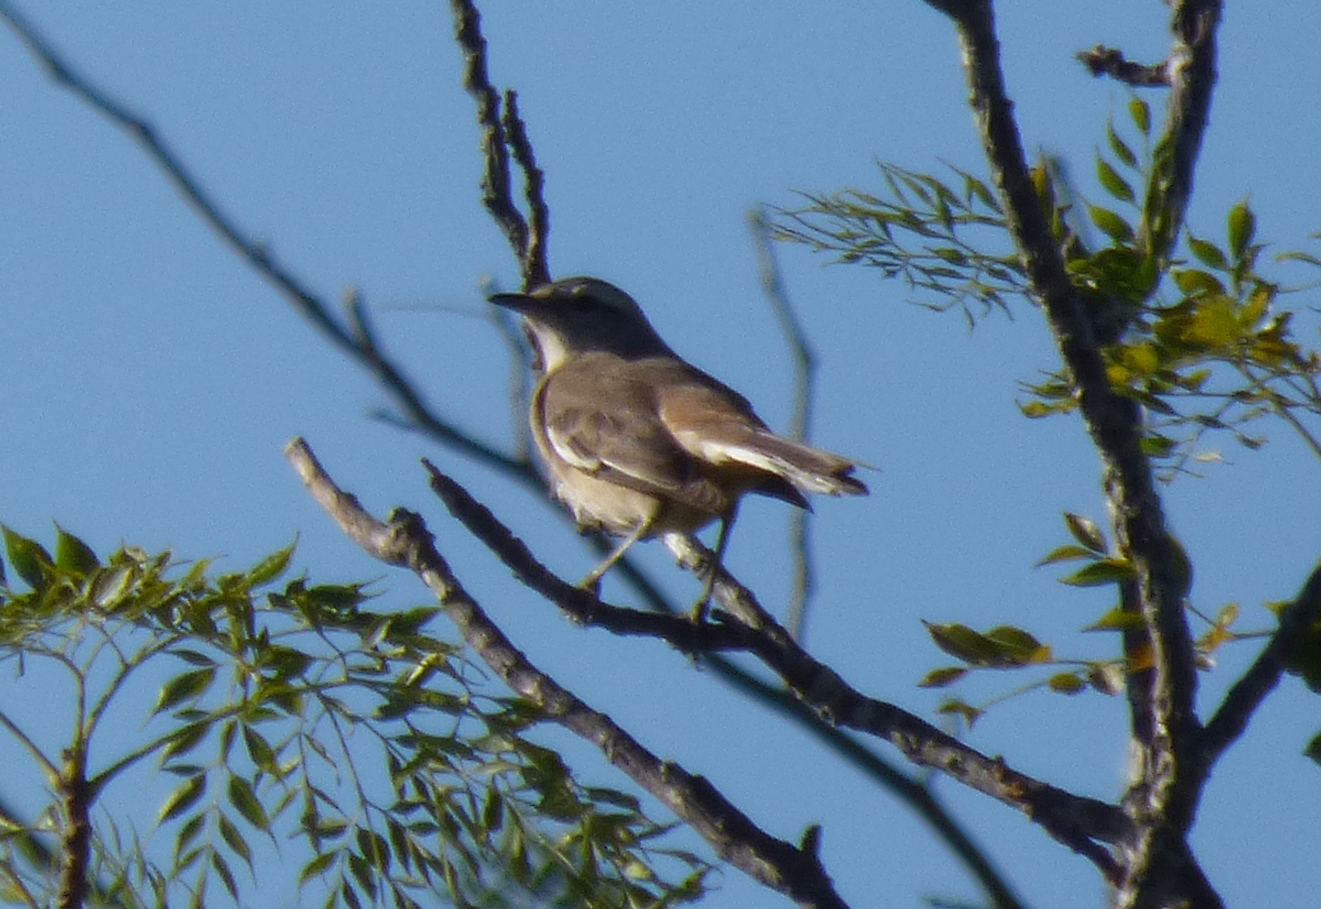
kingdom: Animalia
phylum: Chordata
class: Aves
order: Passeriformes
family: Mimidae
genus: Mimus
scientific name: Mimus triurus
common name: White-banded mockingbird
